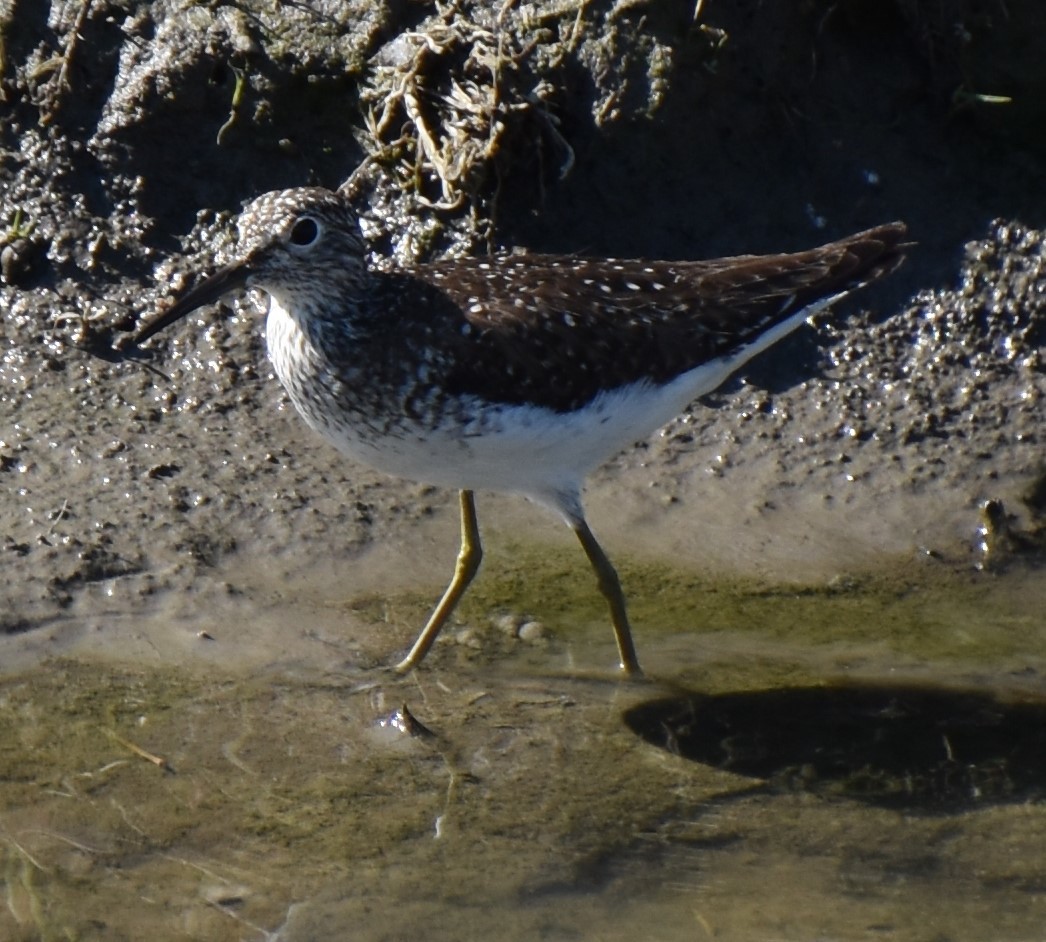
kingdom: Animalia
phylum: Chordata
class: Aves
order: Charadriiformes
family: Scolopacidae
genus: Tringa
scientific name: Tringa solitaria
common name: Solitary sandpiper
